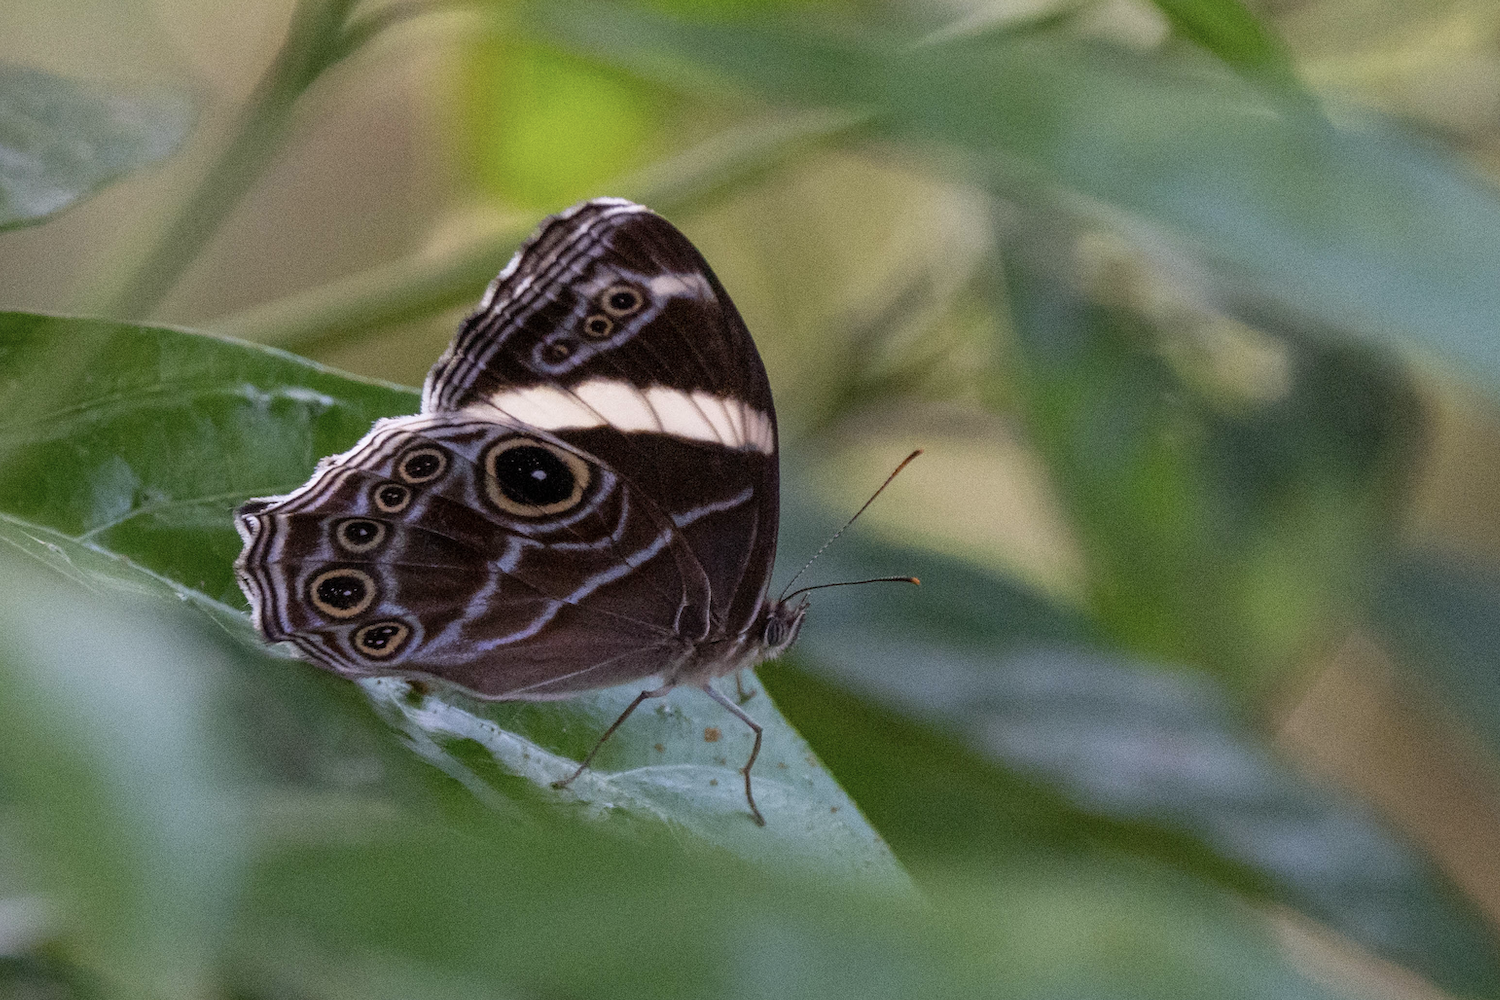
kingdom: Animalia
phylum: Arthropoda
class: Insecta
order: Lepidoptera
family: Nymphalidae
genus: Lethe
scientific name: Lethe confusa
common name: Banded treebrown
